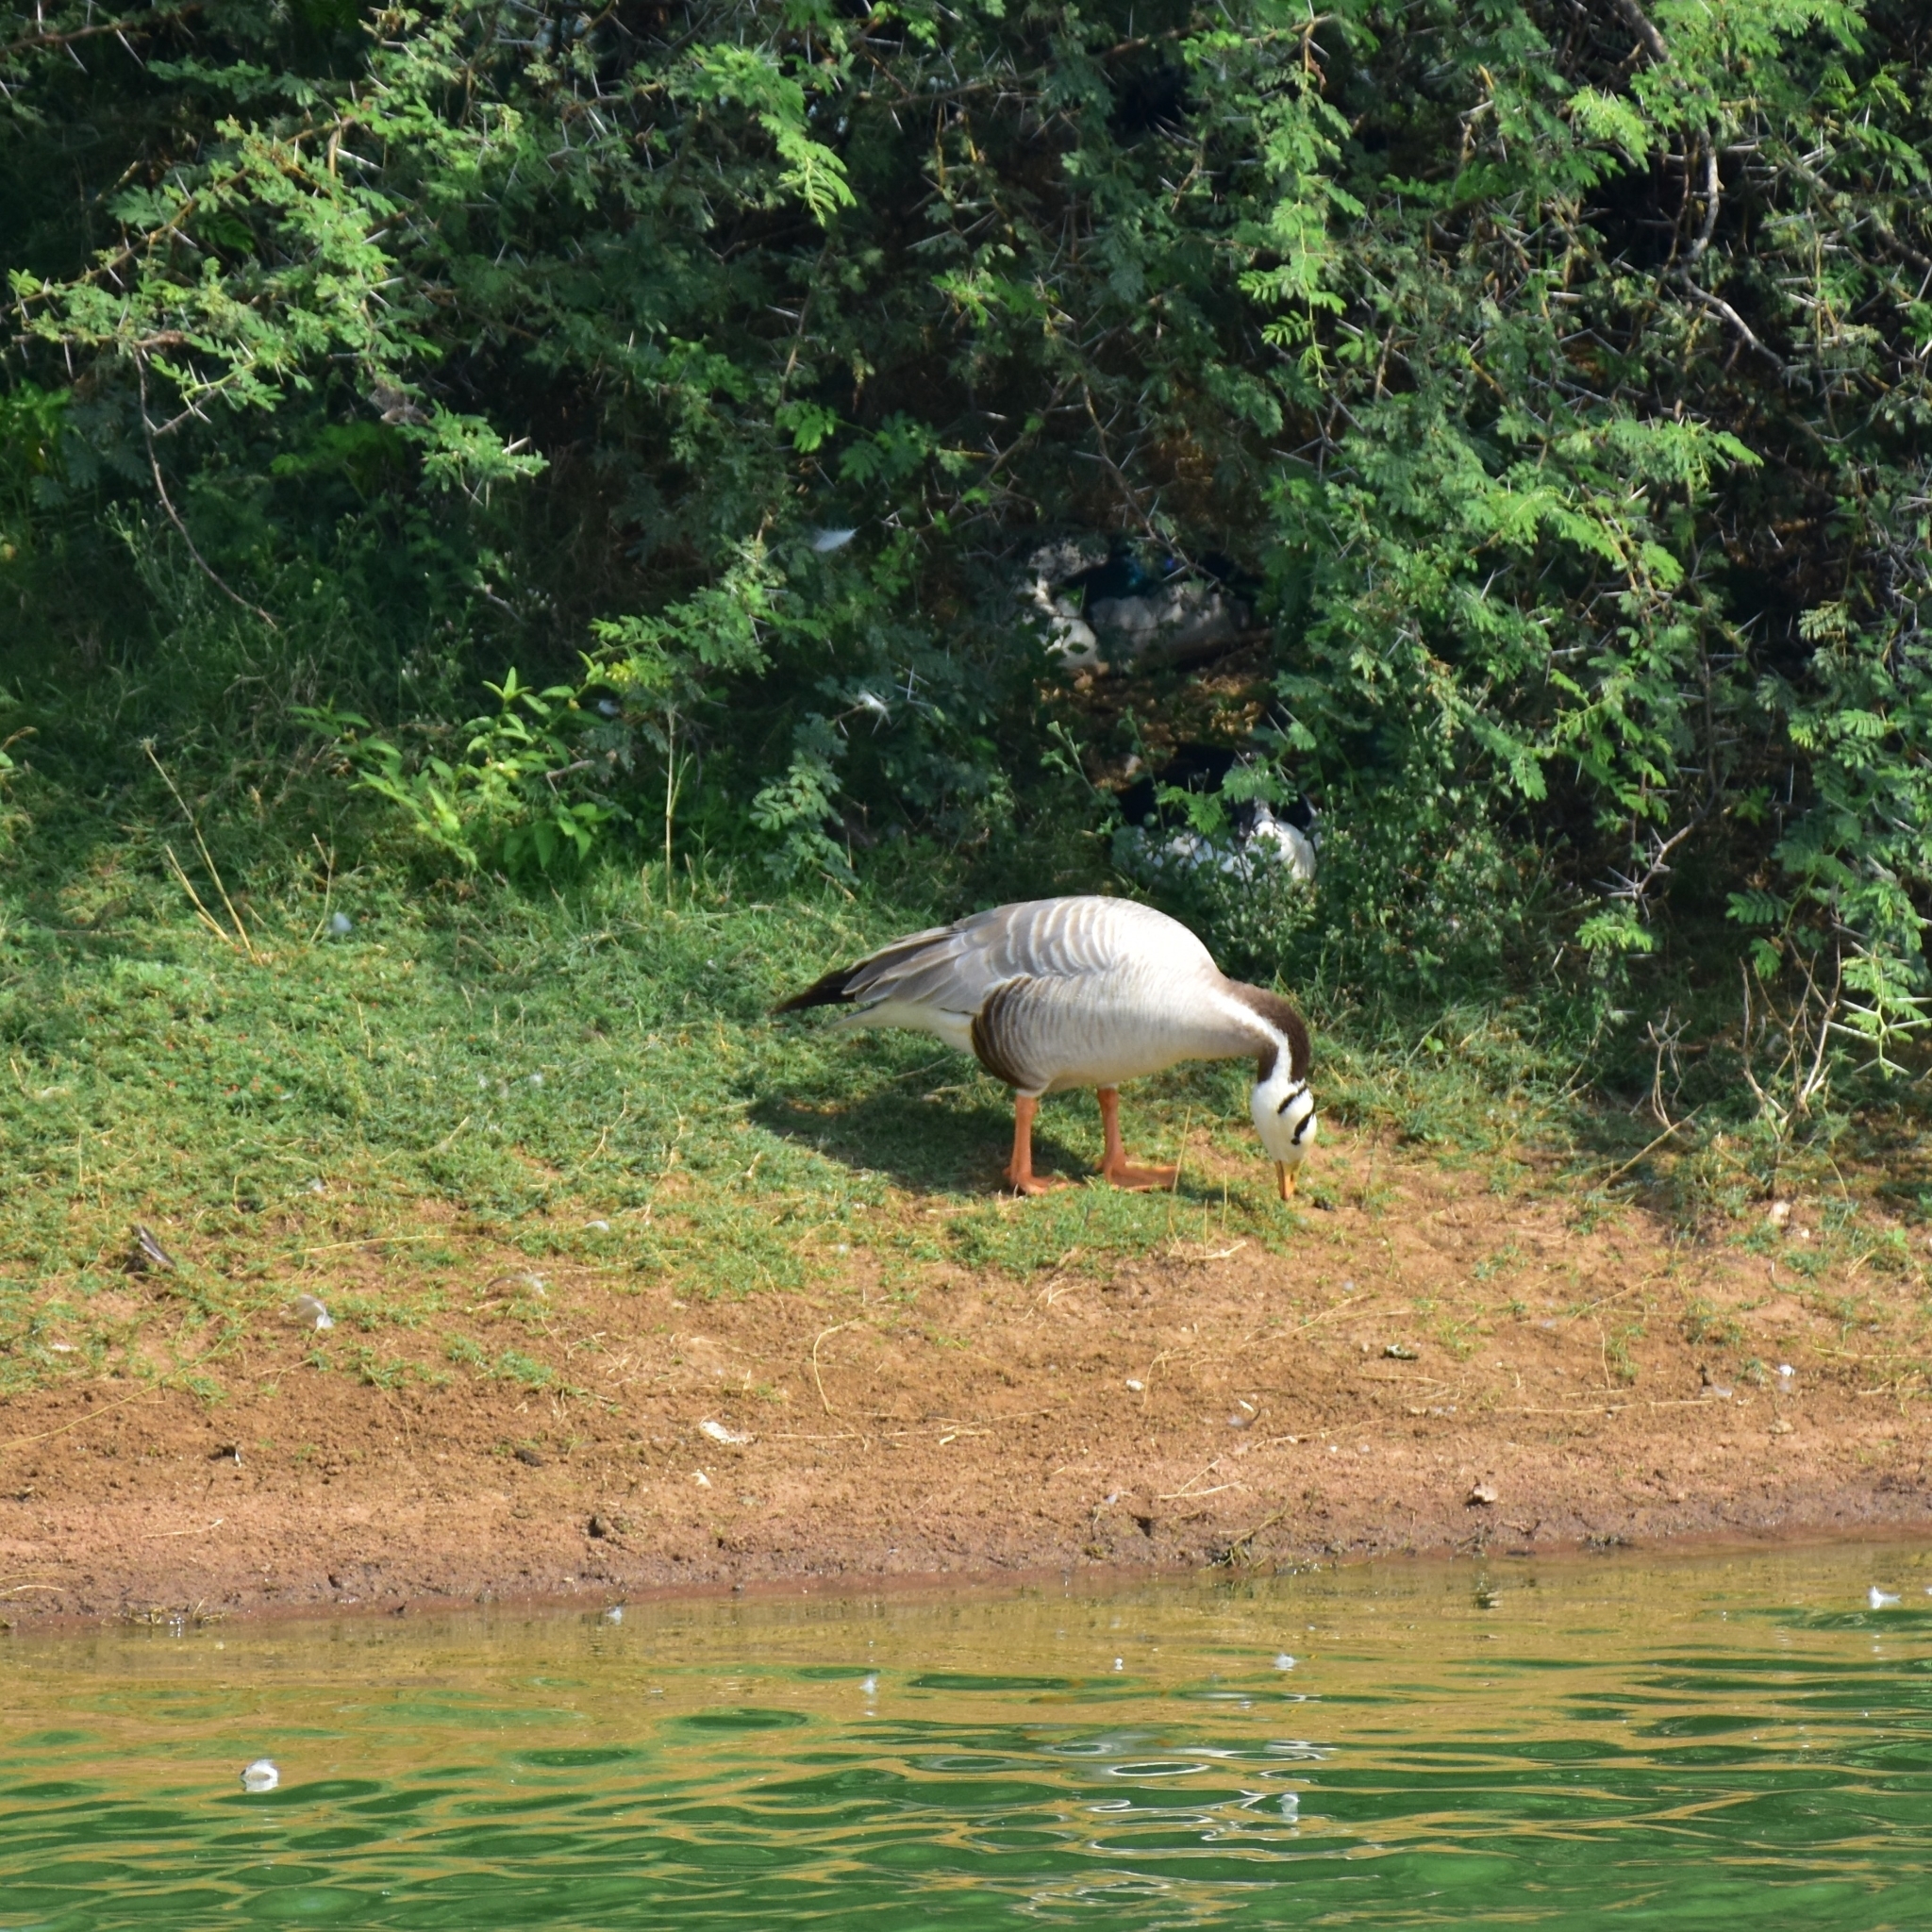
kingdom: Animalia
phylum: Chordata
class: Aves
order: Anseriformes
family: Anatidae
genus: Anser
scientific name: Anser indicus
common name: Bar-headed goose
